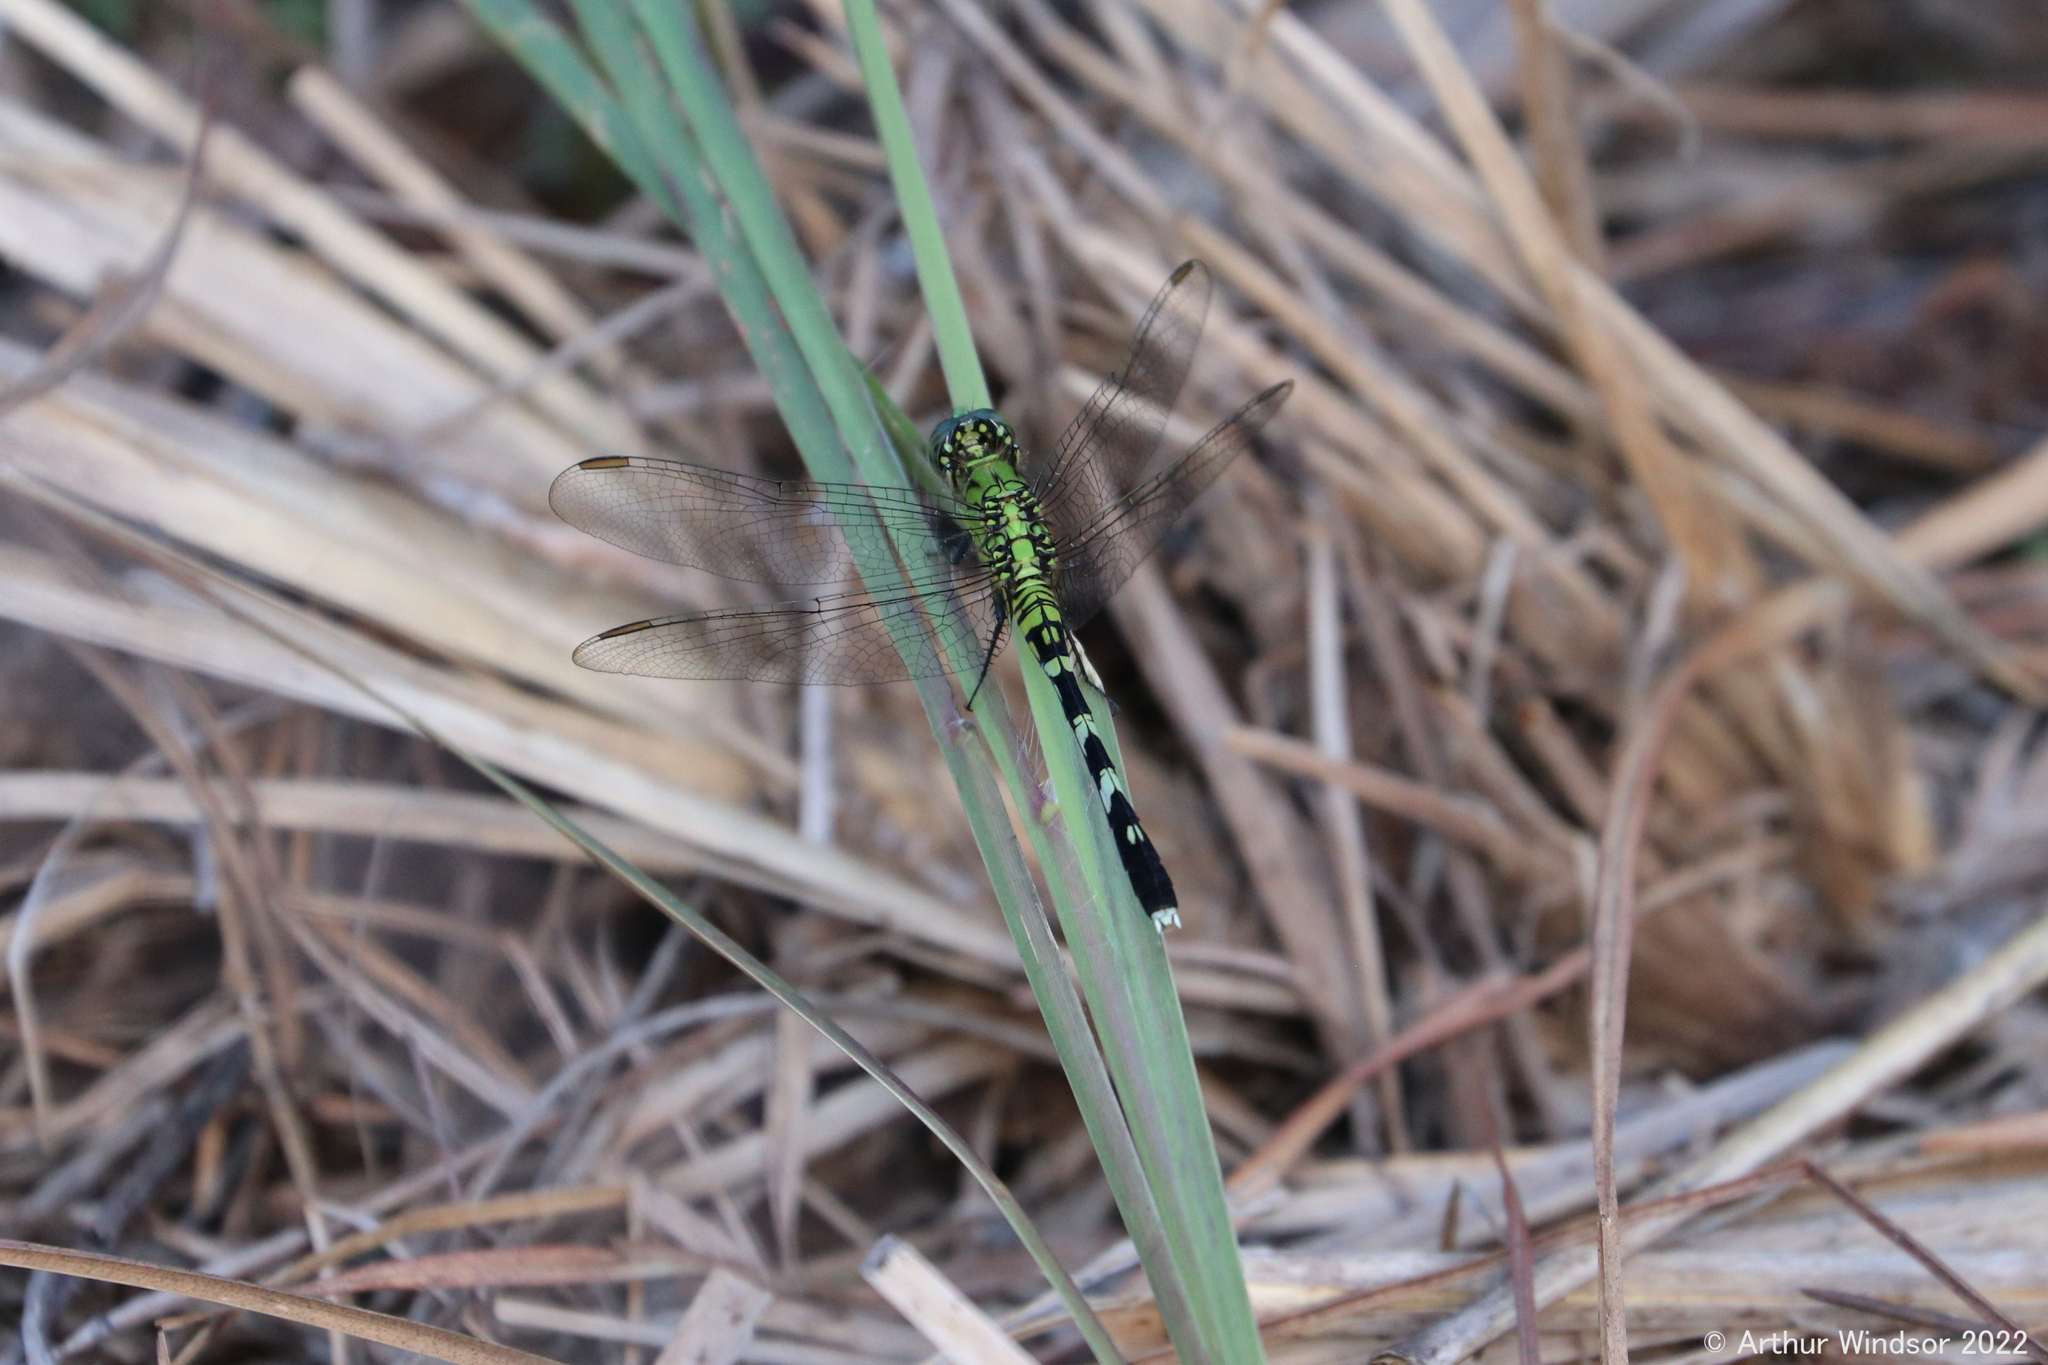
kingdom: Animalia
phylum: Arthropoda
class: Insecta
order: Odonata
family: Libellulidae
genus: Erythemis
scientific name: Erythemis simplicicollis
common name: Eastern pondhawk
